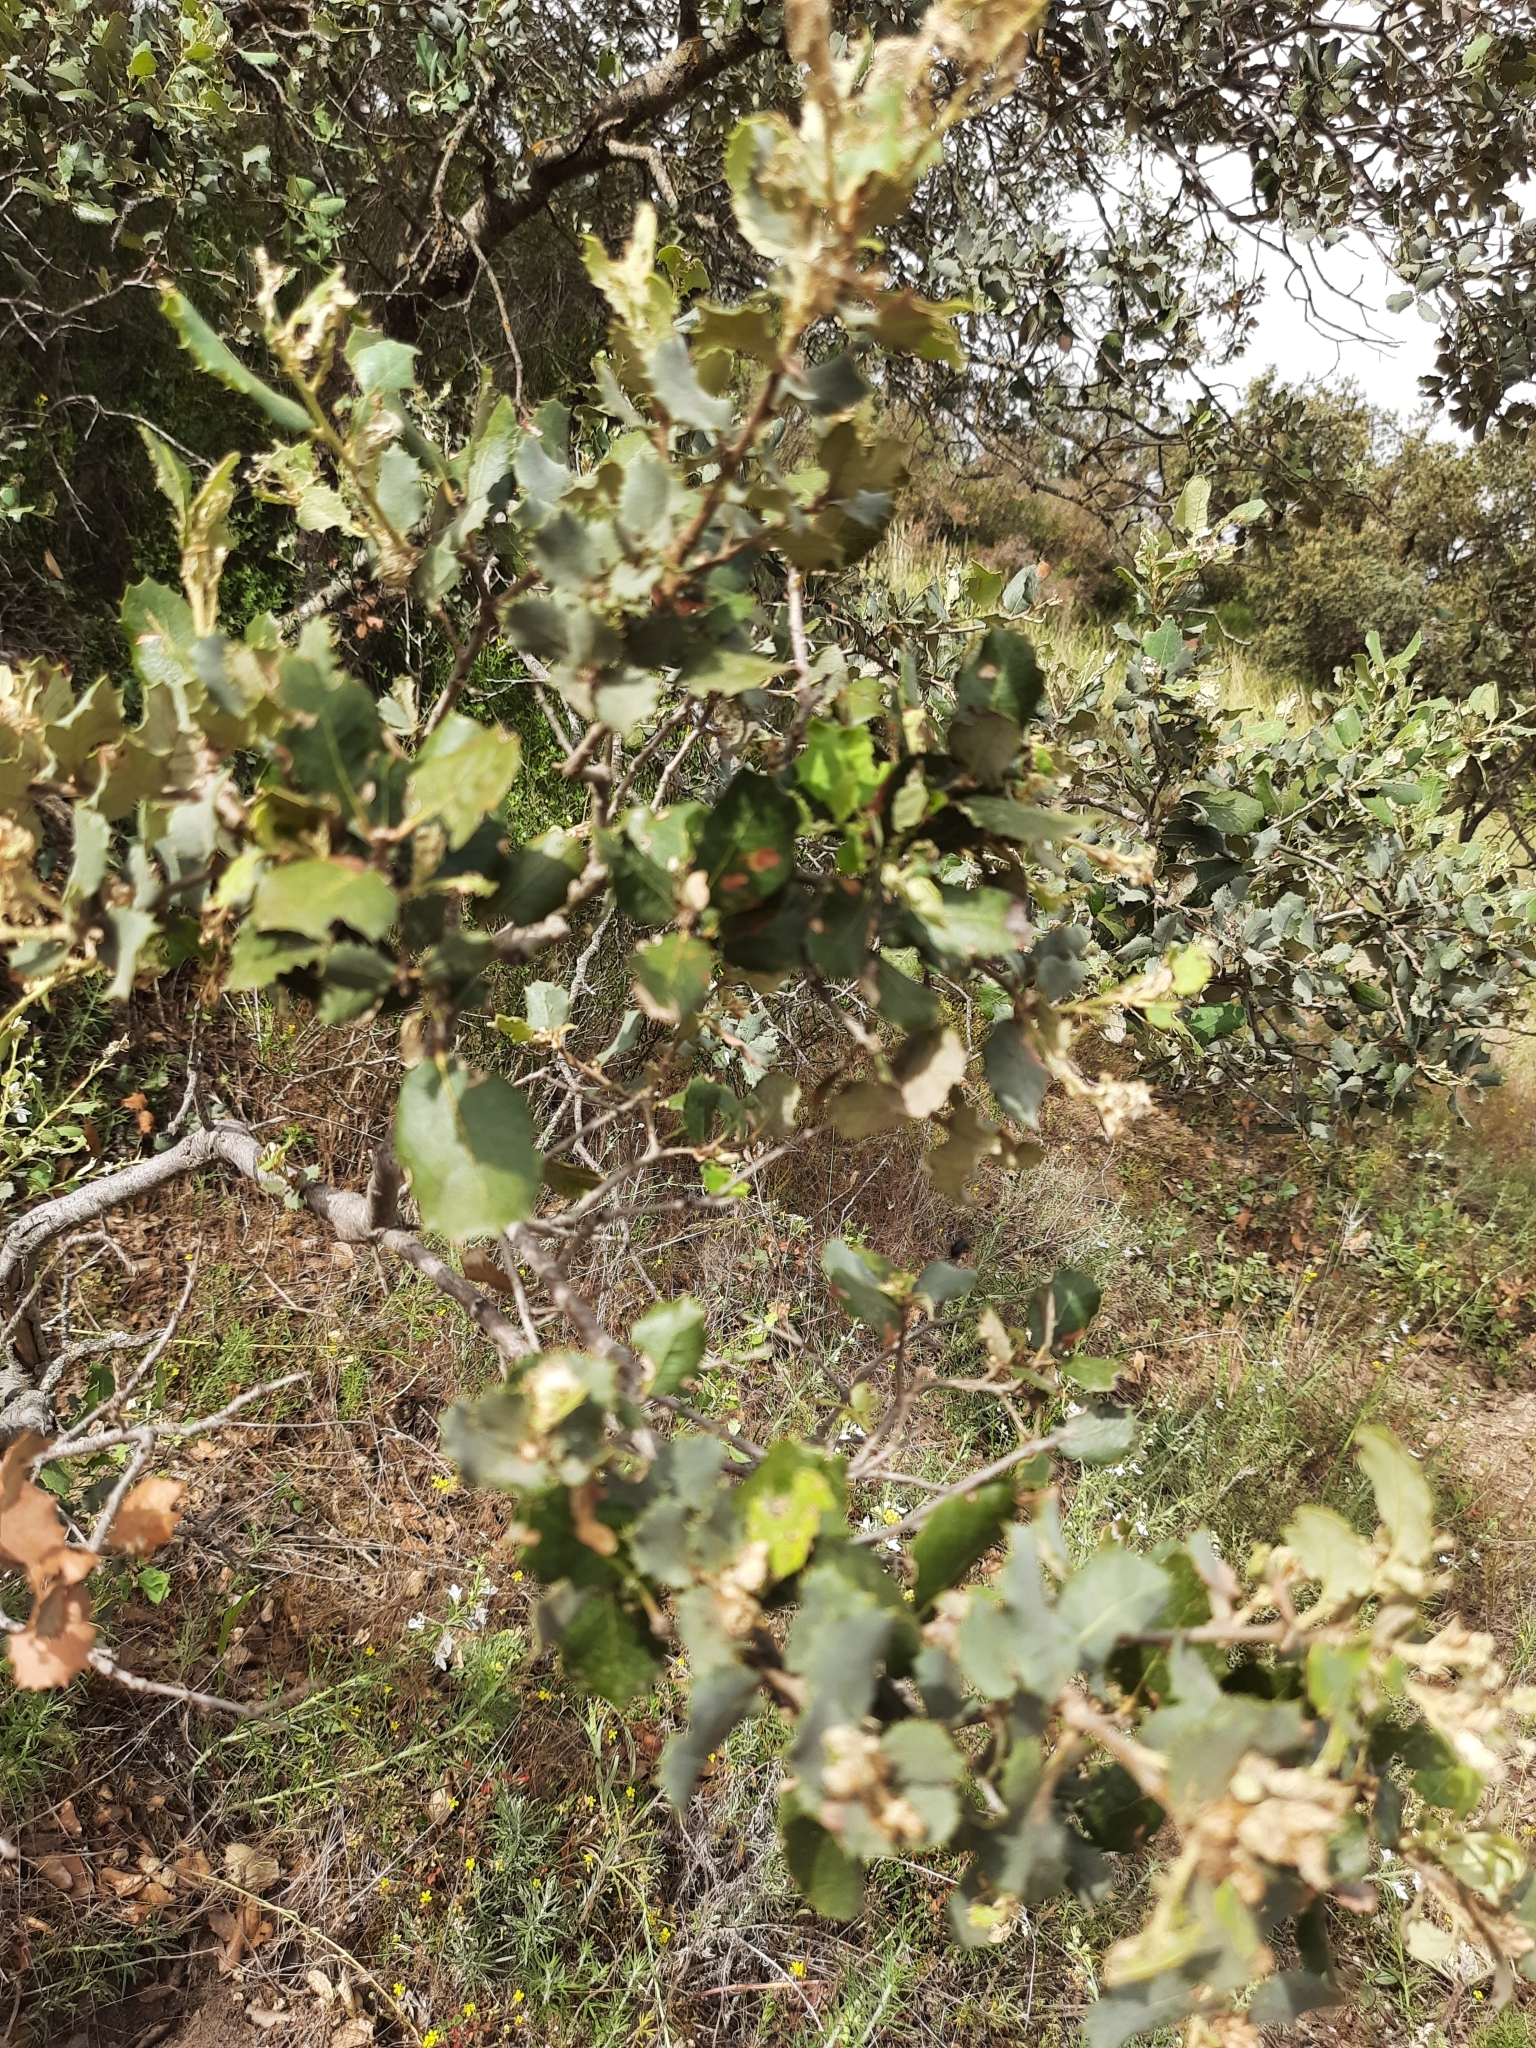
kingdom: Plantae
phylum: Tracheophyta
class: Magnoliopsida
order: Fagales
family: Fagaceae
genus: Quercus
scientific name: Quercus rotundifolia
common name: Holm oak
